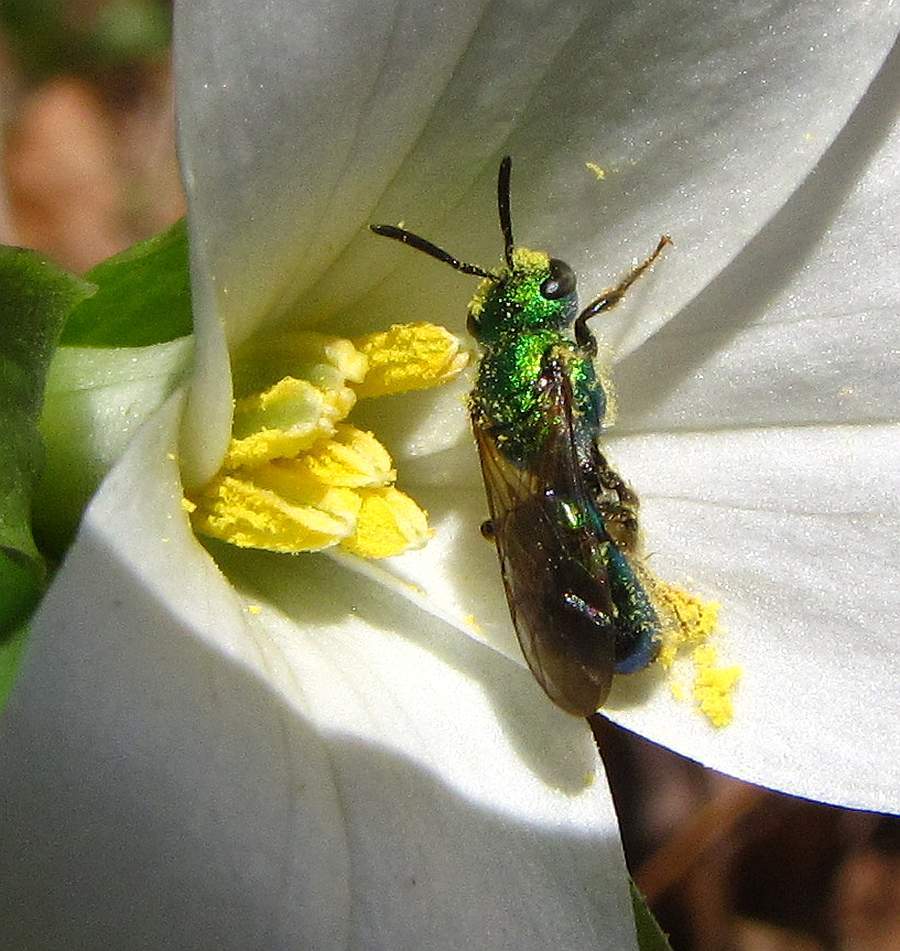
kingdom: Animalia
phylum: Arthropoda
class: Insecta
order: Hymenoptera
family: Halictidae
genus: Augochlora
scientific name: Augochlora pura
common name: Pure green sweat bee
